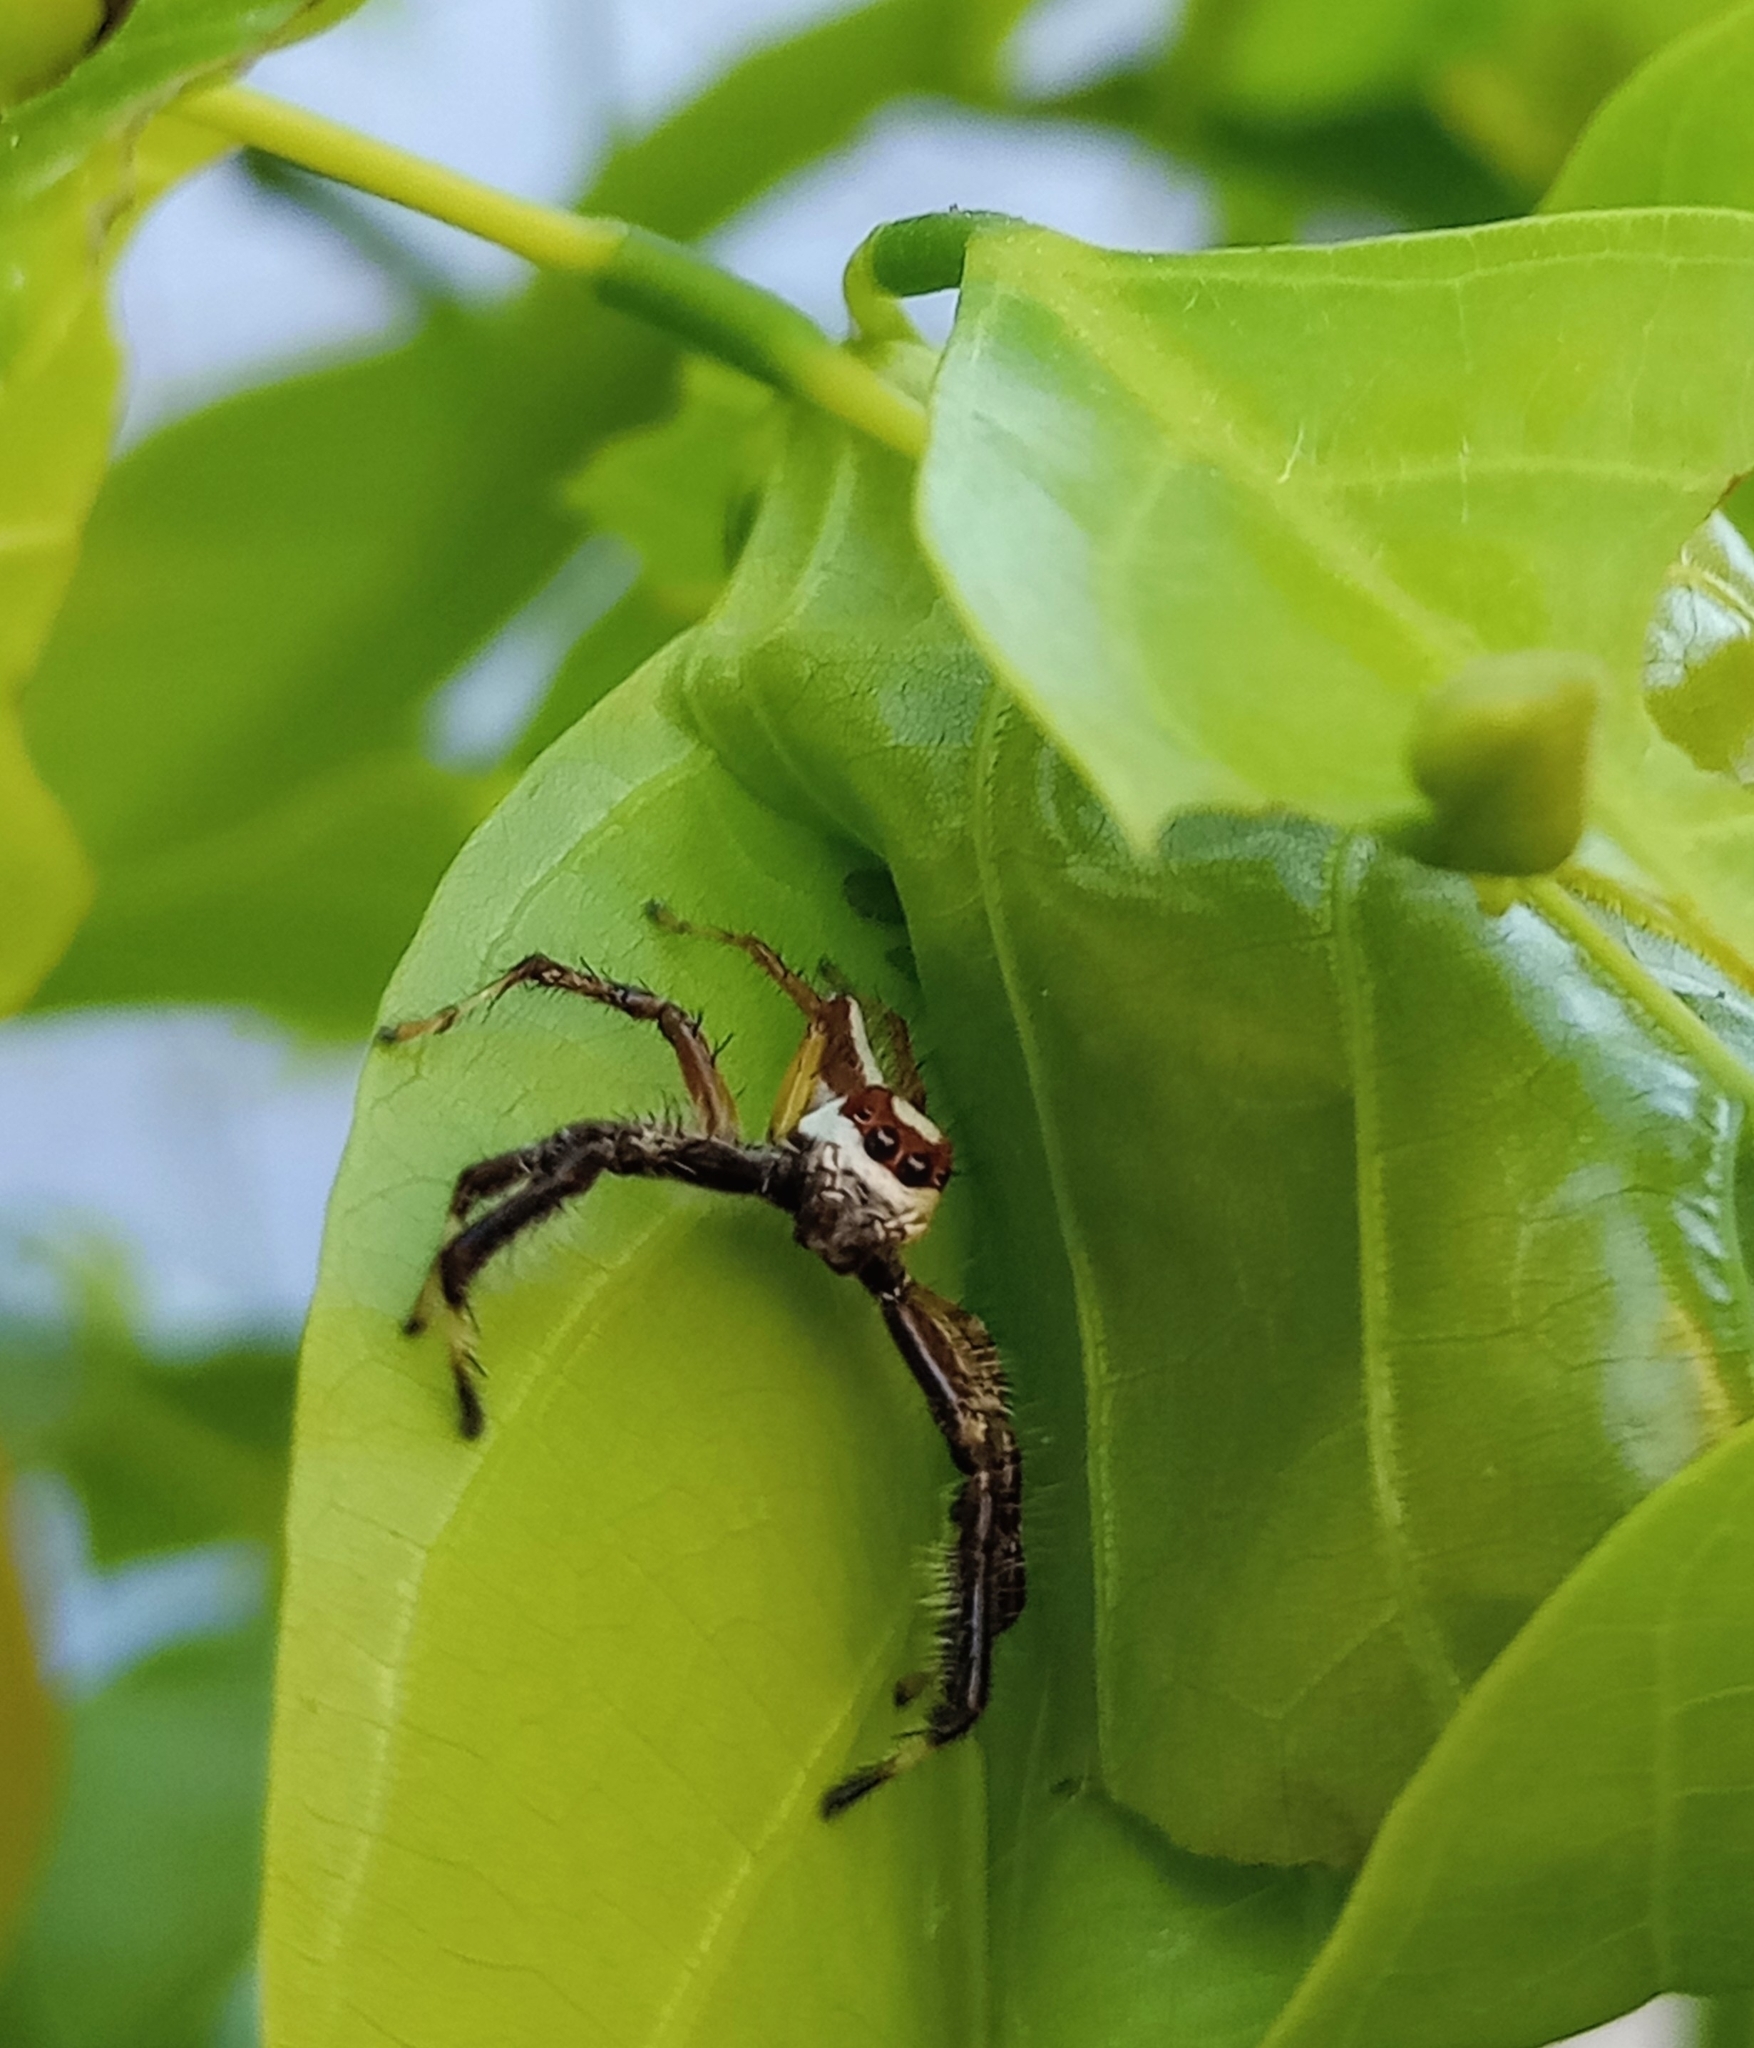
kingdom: Animalia
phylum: Arthropoda
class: Arachnida
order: Araneae
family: Salticidae
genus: Telamonia
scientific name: Telamonia dimidiata
